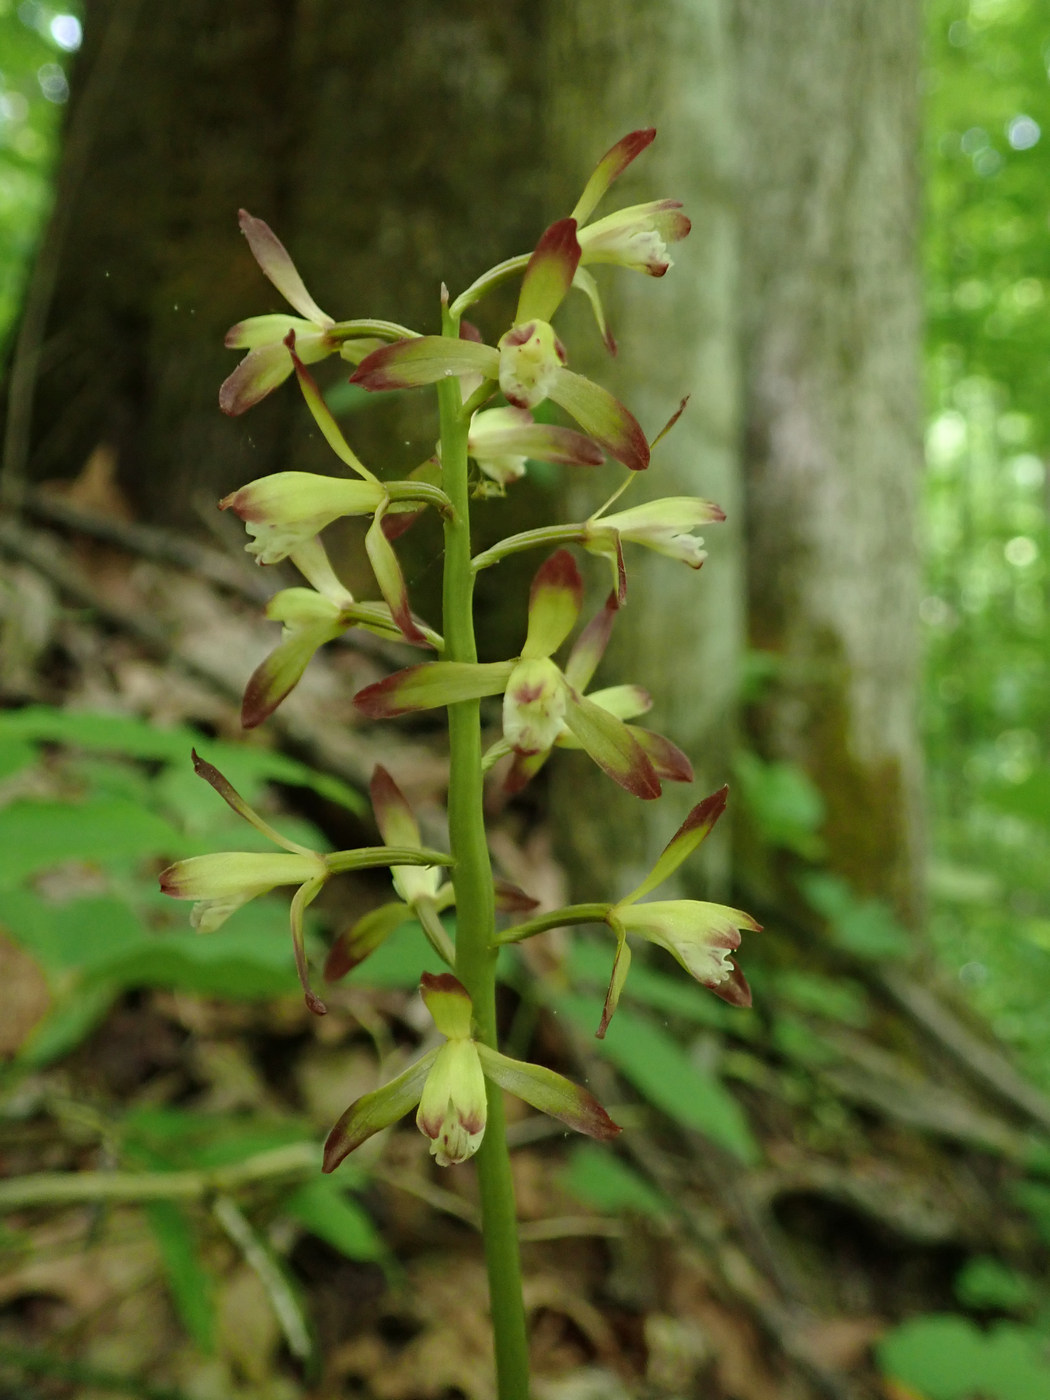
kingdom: Plantae
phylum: Tracheophyta
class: Liliopsida
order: Asparagales
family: Orchidaceae
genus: Aplectrum
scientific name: Aplectrum hyemale
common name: Adam-and-eve
